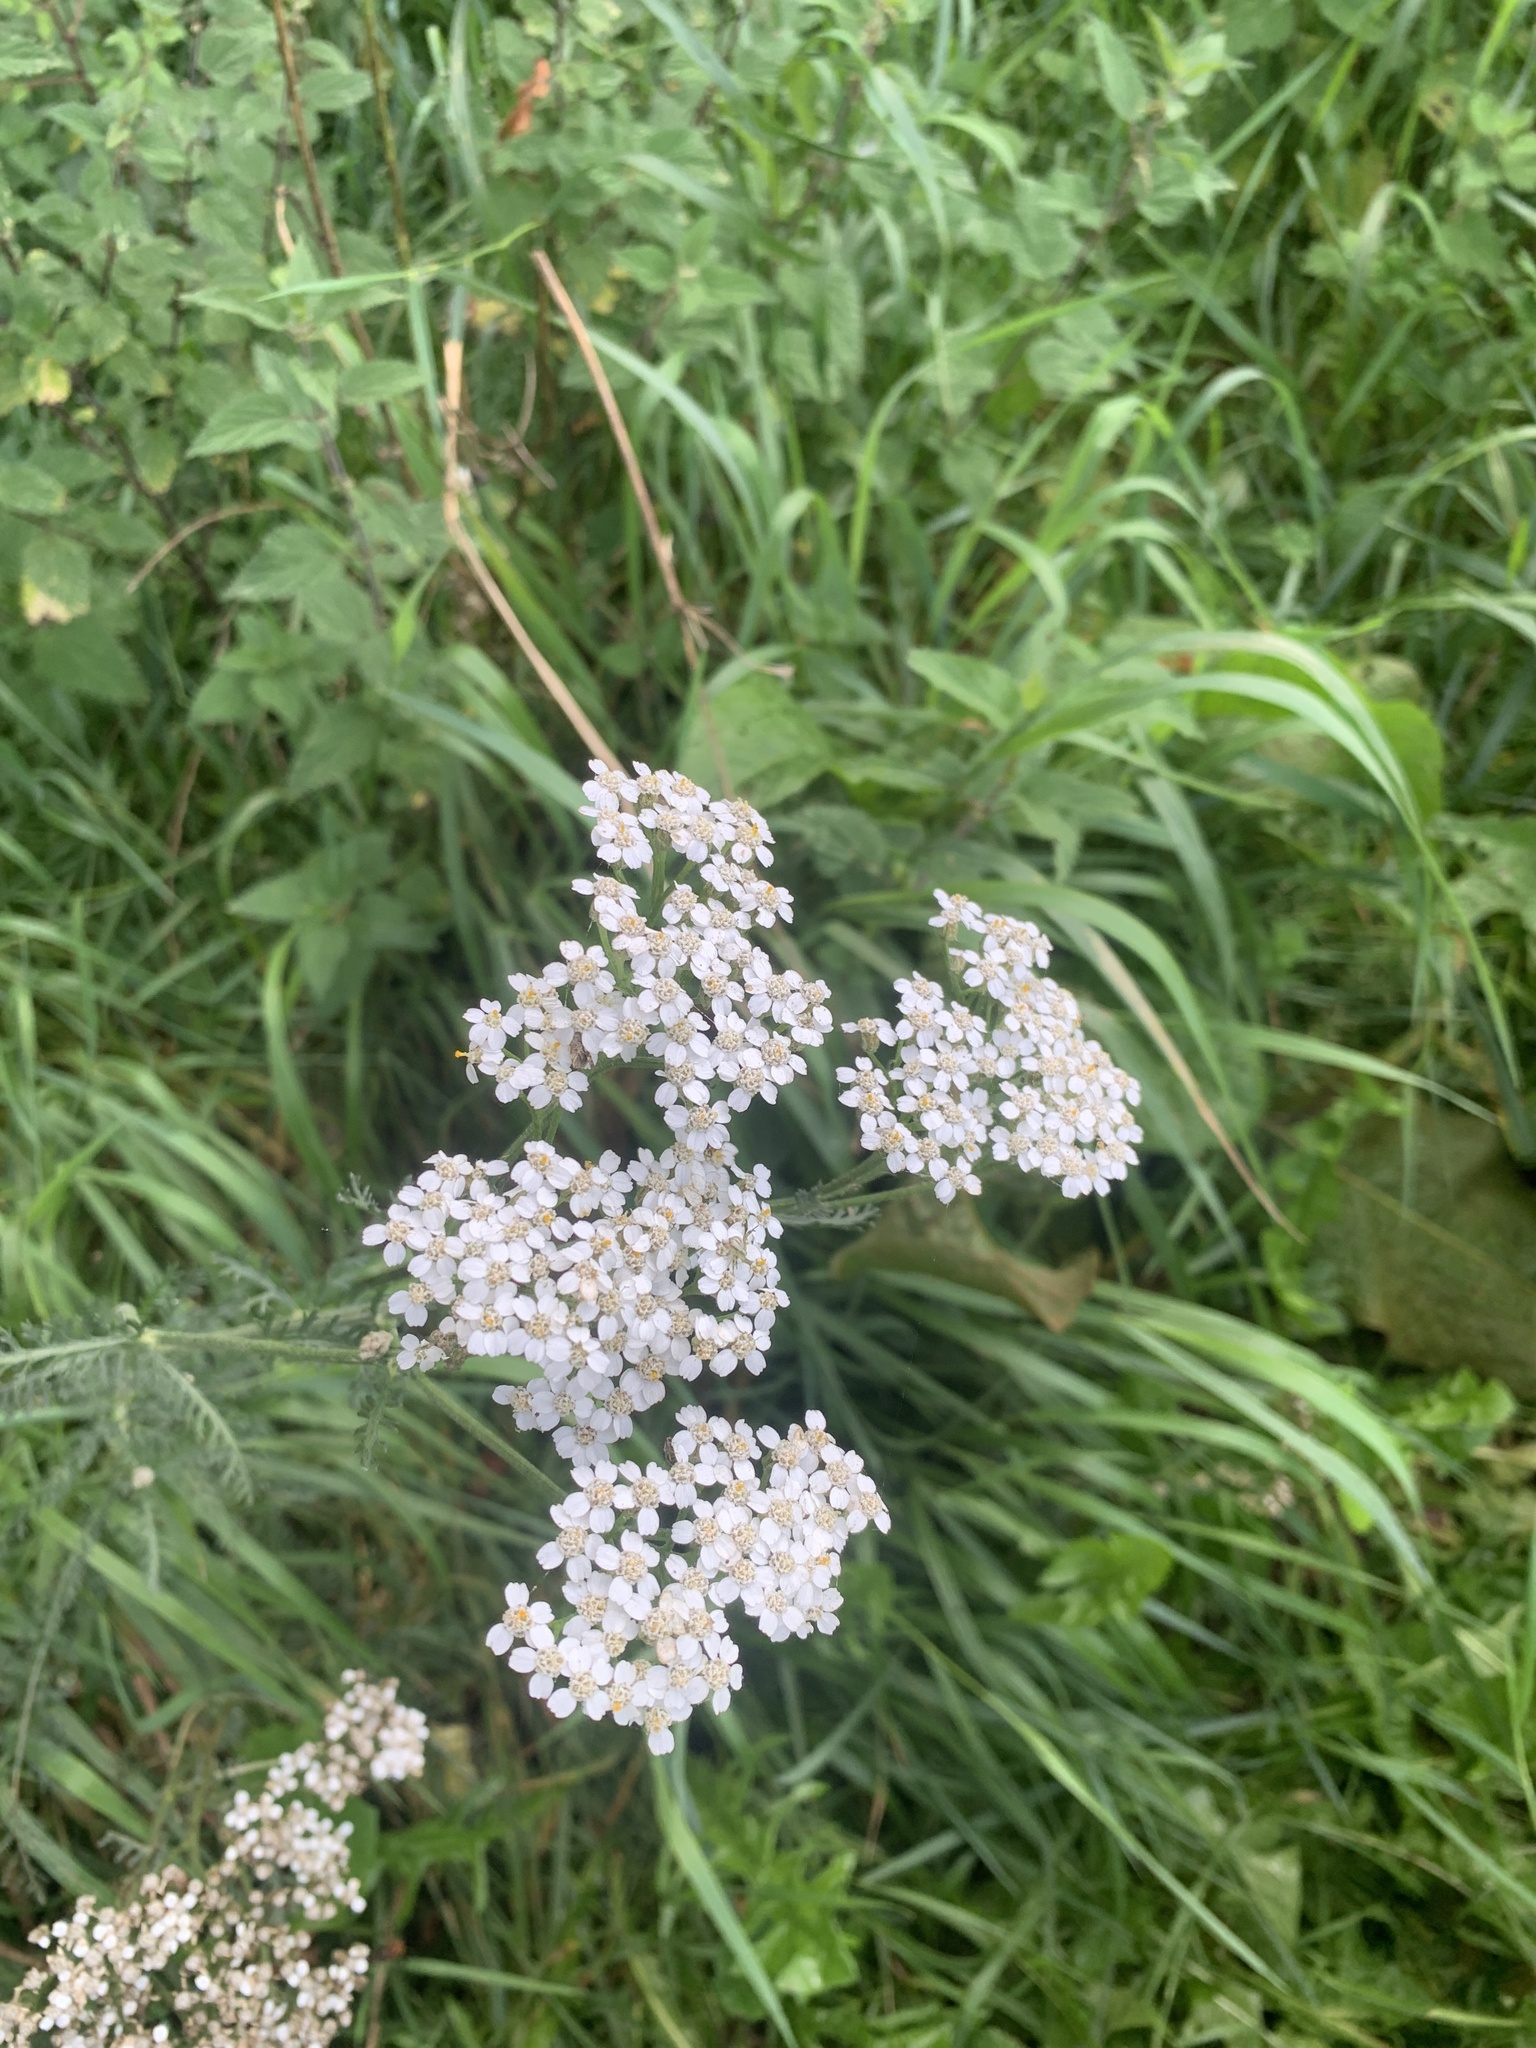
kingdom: Plantae
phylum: Tracheophyta
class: Magnoliopsida
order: Asterales
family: Asteraceae
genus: Achillea
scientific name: Achillea millefolium
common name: Yarrow
